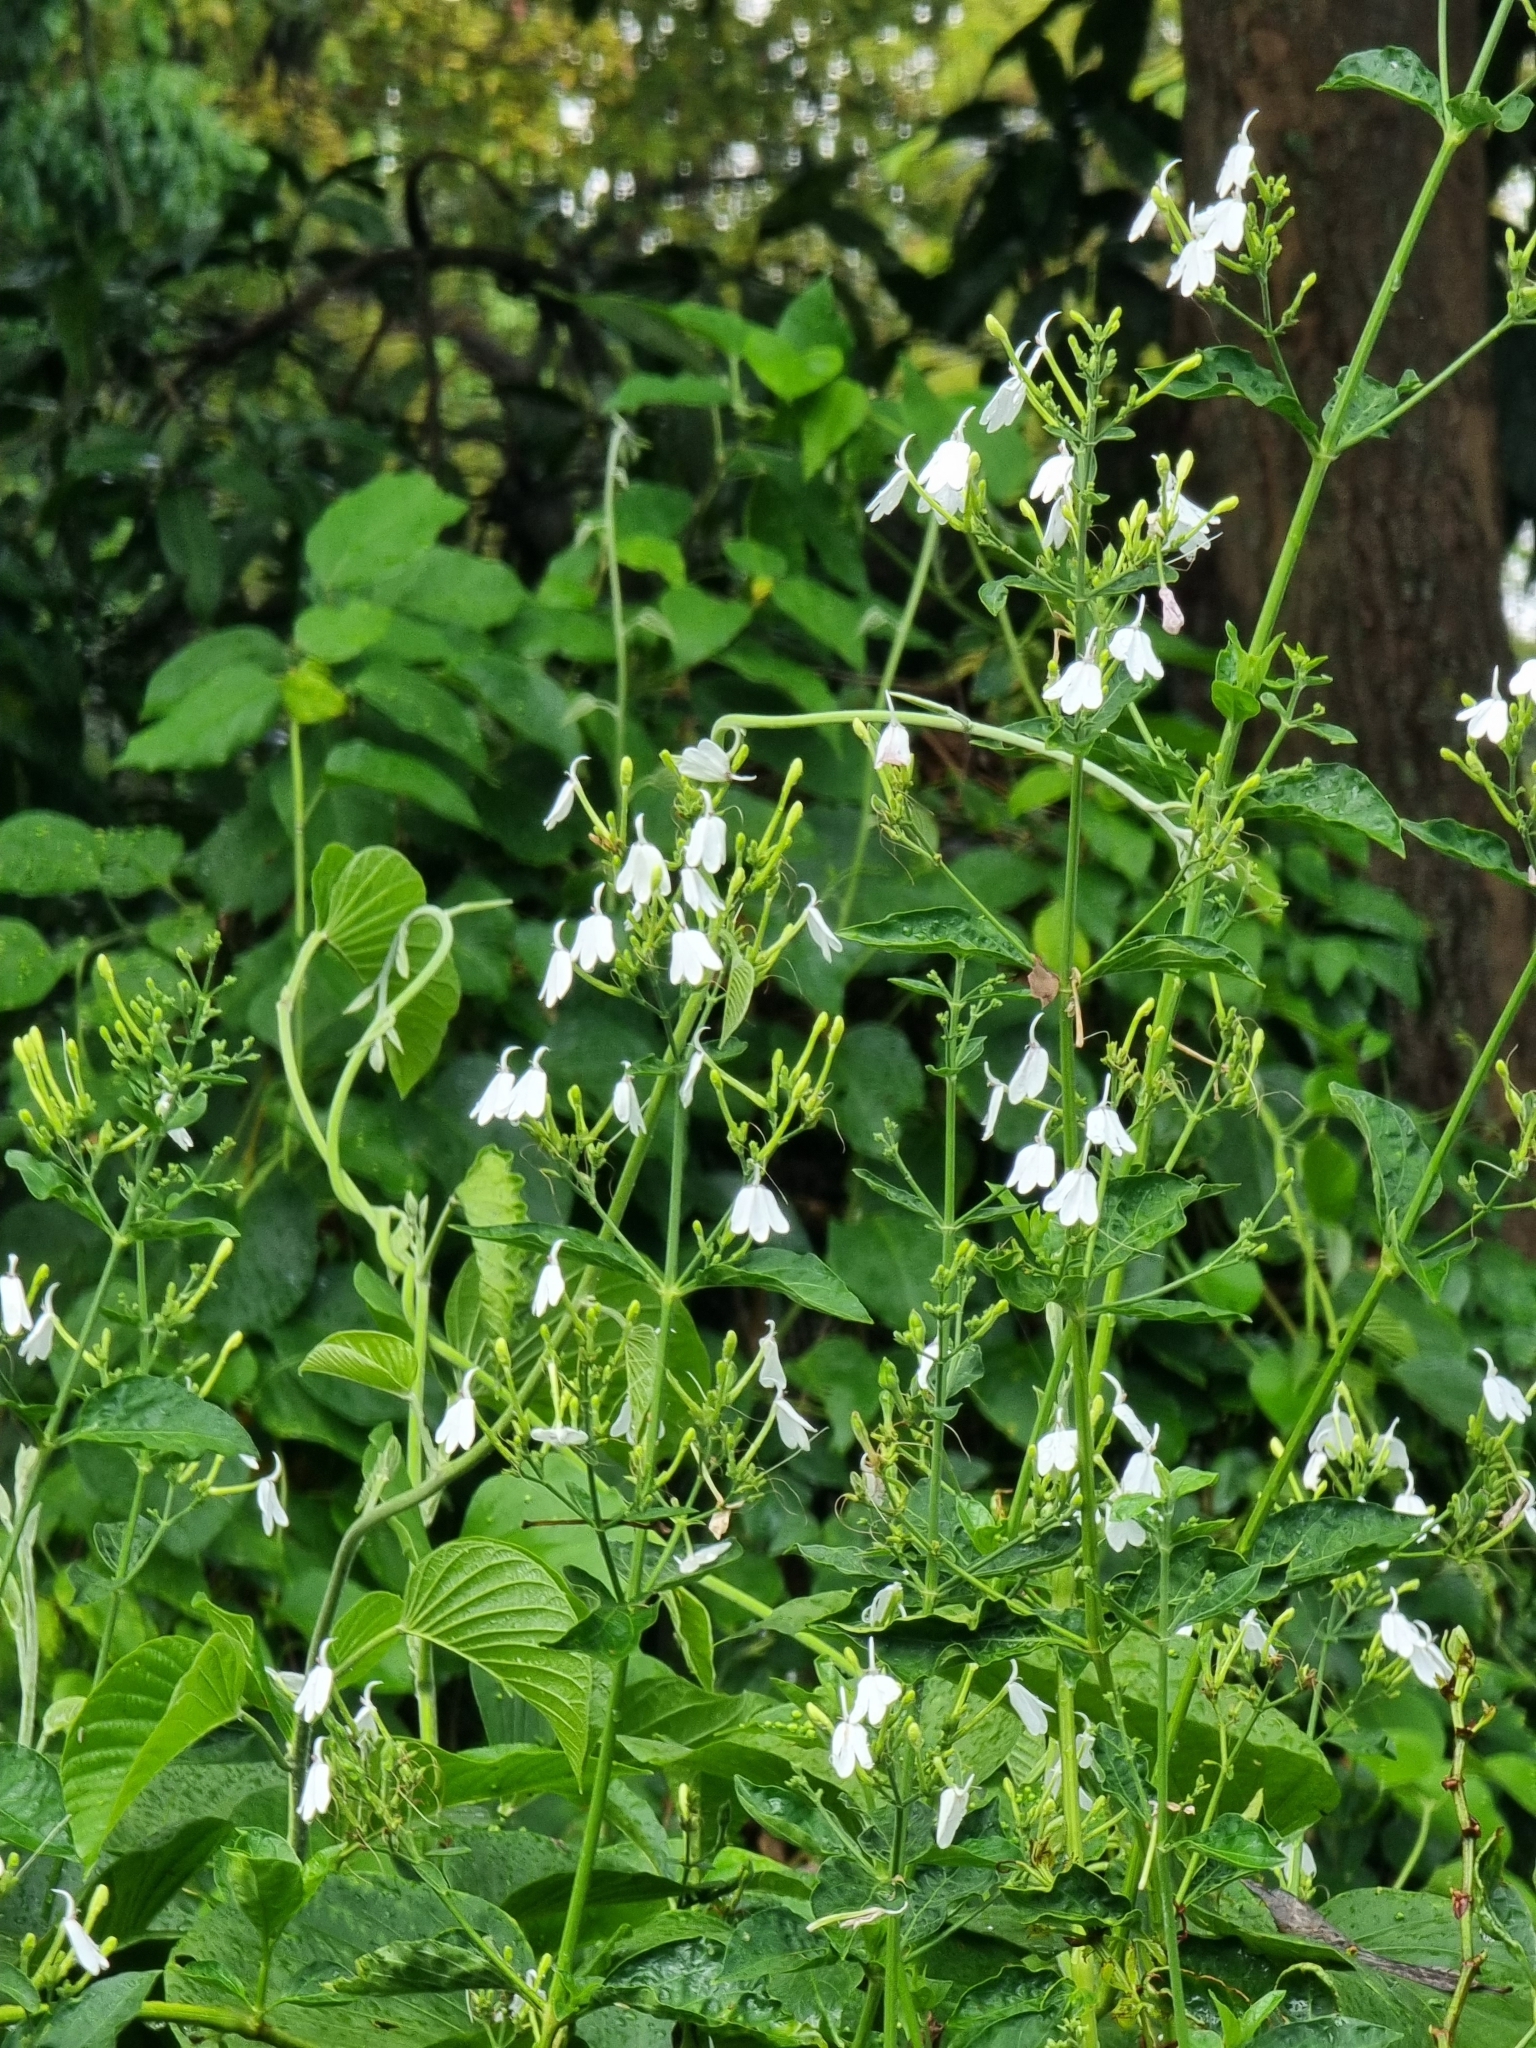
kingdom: Plantae
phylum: Tracheophyta
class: Magnoliopsida
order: Lamiales
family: Acanthaceae
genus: Rhinacanthus
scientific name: Rhinacanthus nasutus
